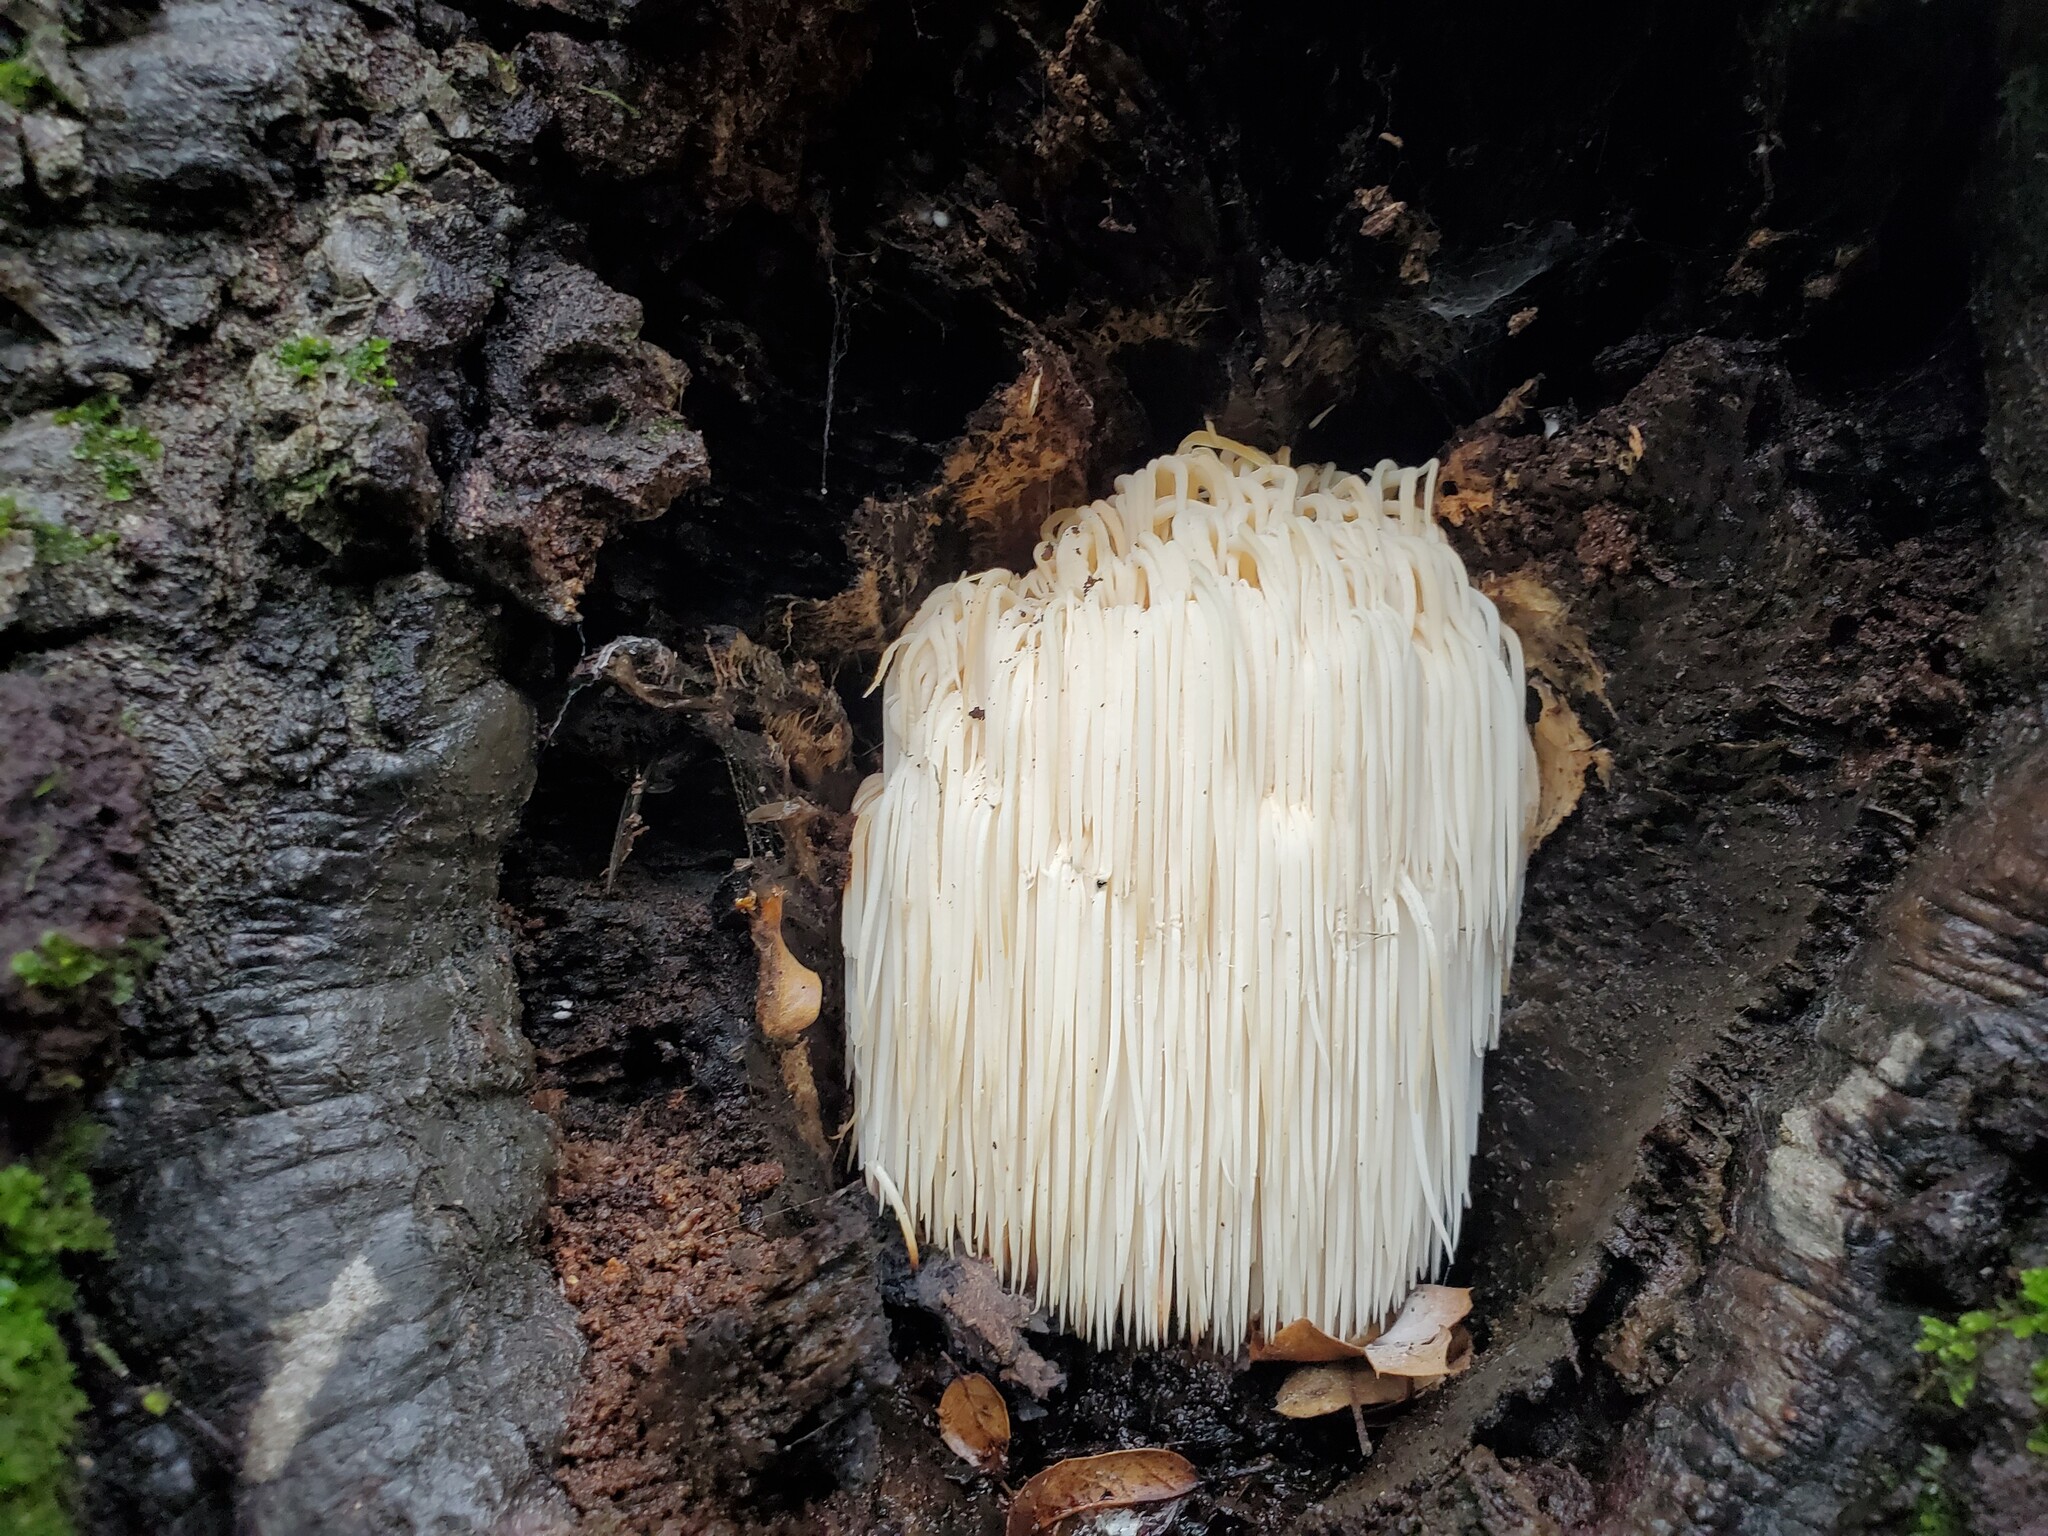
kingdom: Fungi
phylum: Basidiomycota
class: Agaricomycetes
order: Russulales
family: Hericiaceae
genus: Hericium
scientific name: Hericium erinaceus
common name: Bearded tooth
